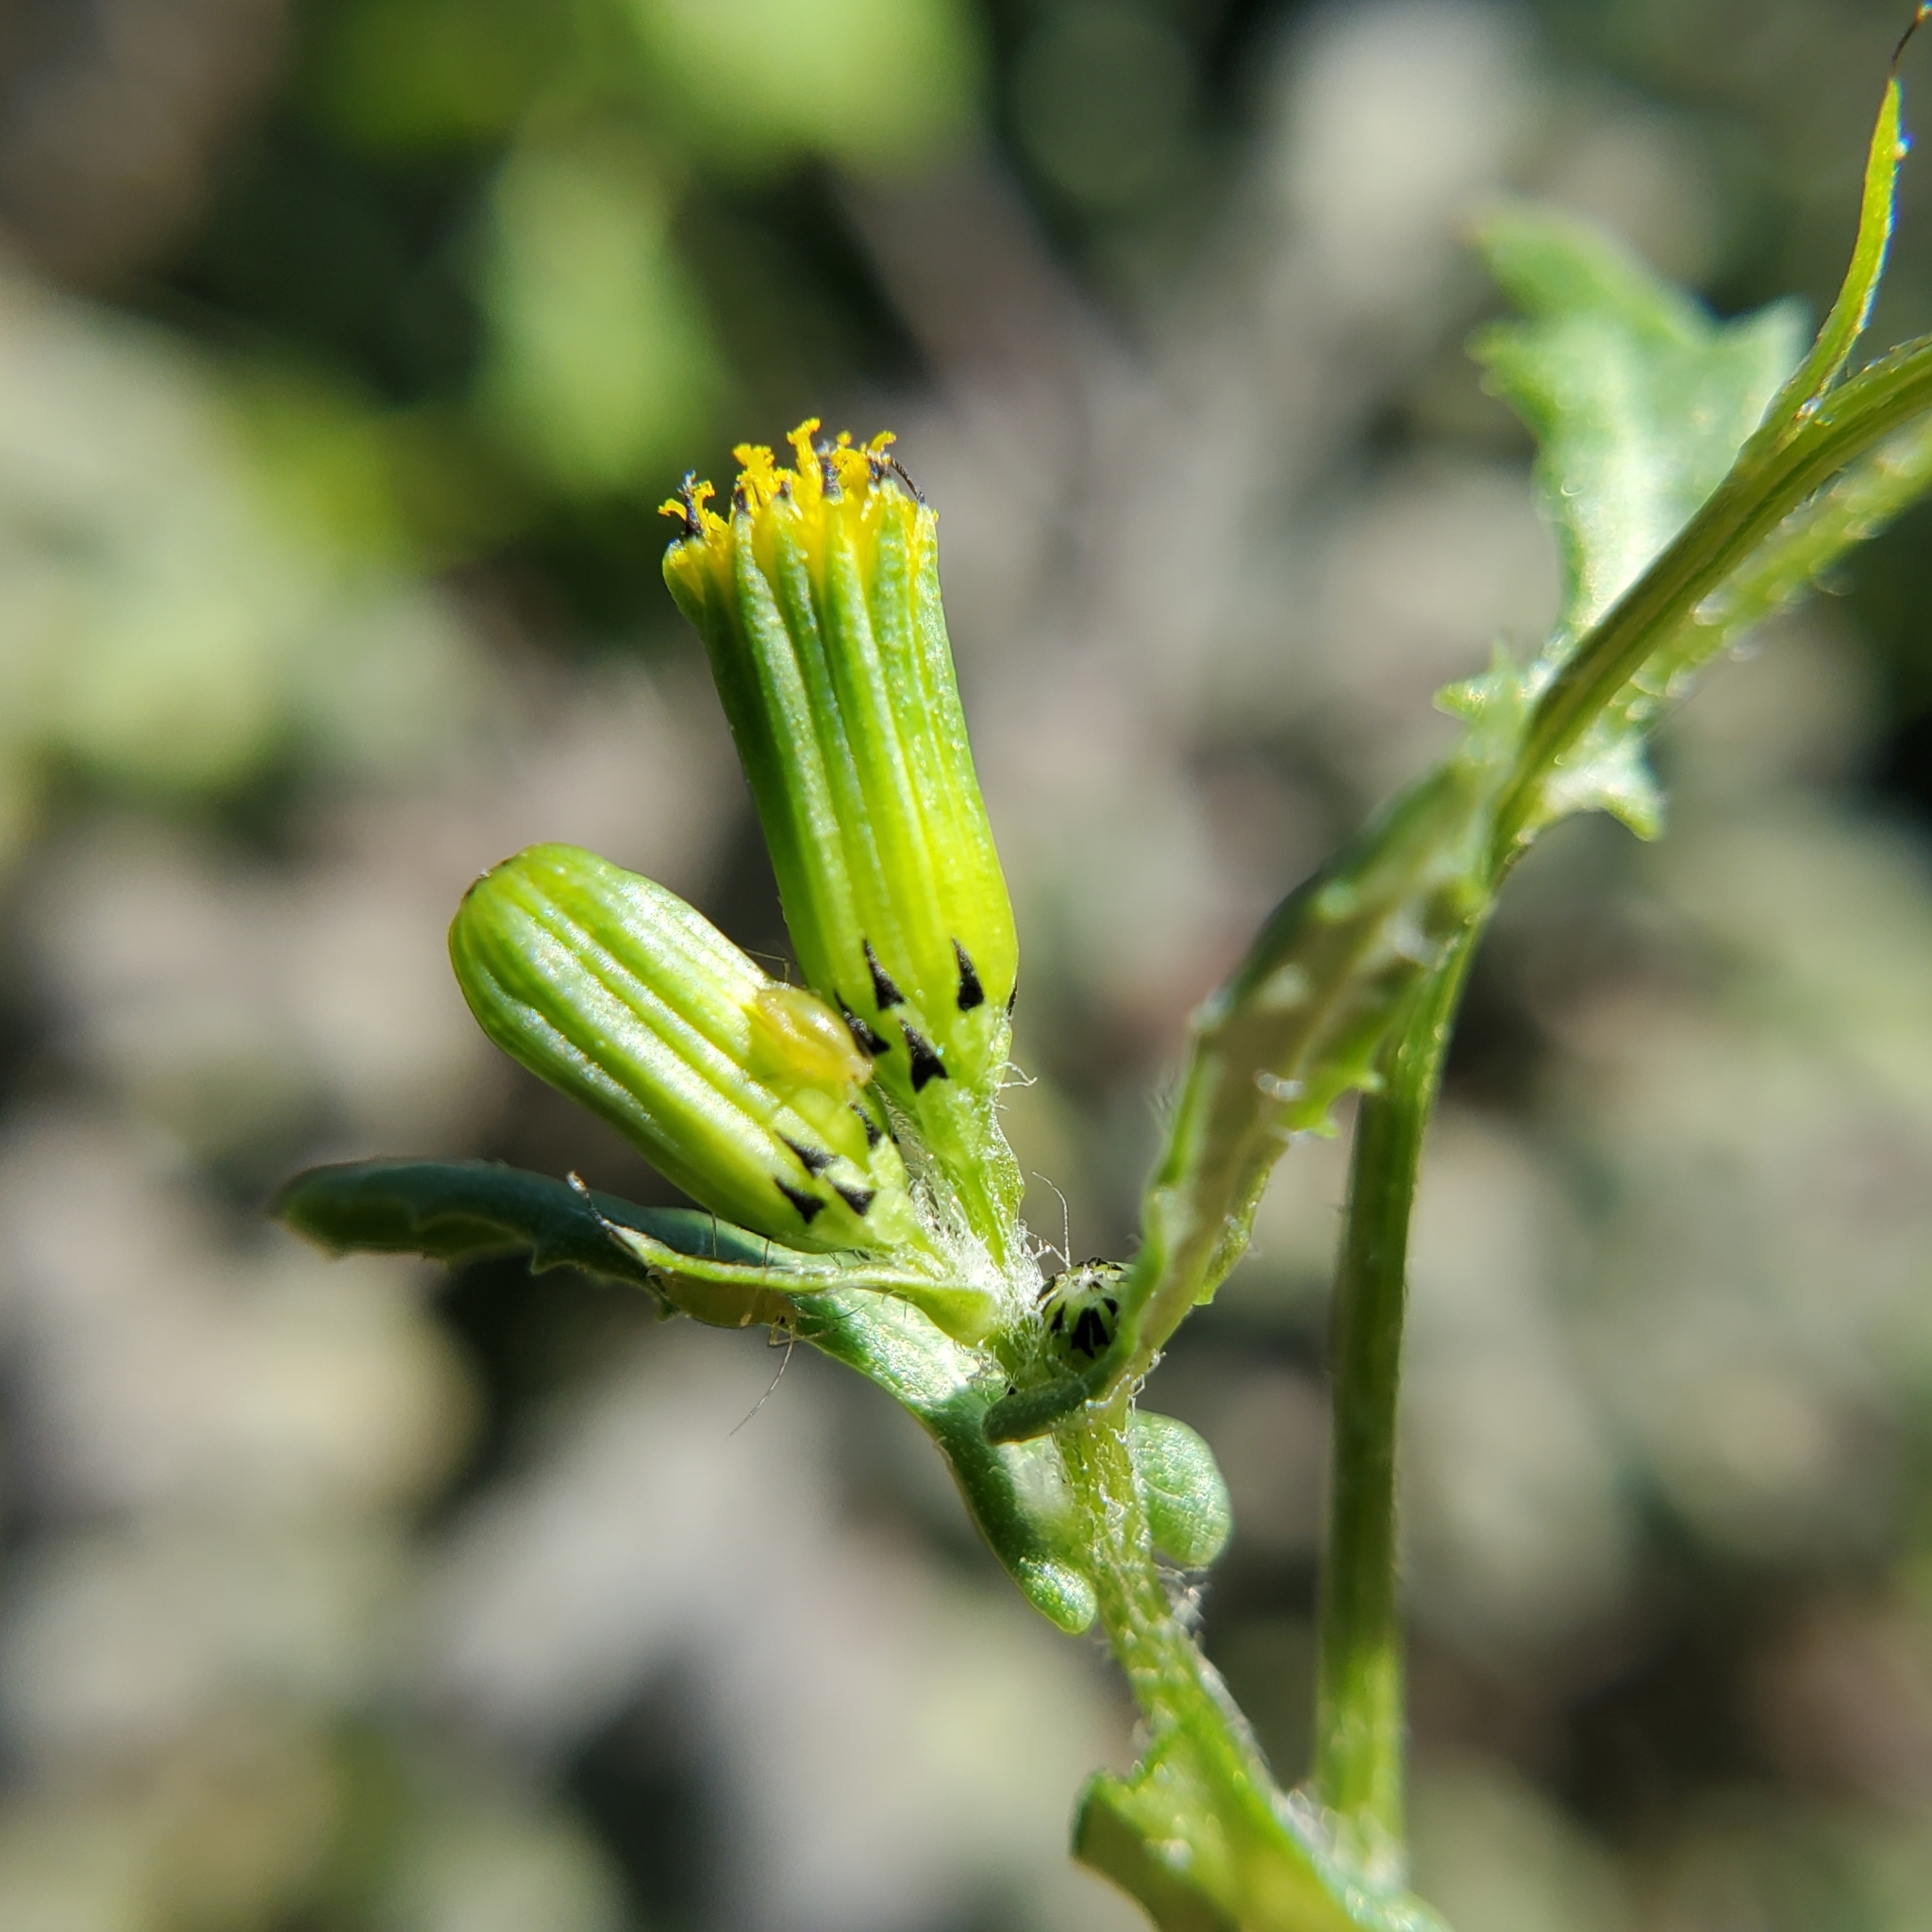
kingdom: Plantae
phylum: Tracheophyta
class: Magnoliopsida
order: Asterales
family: Asteraceae
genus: Senecio
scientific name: Senecio vulgaris
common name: Old-man-in-the-spring
